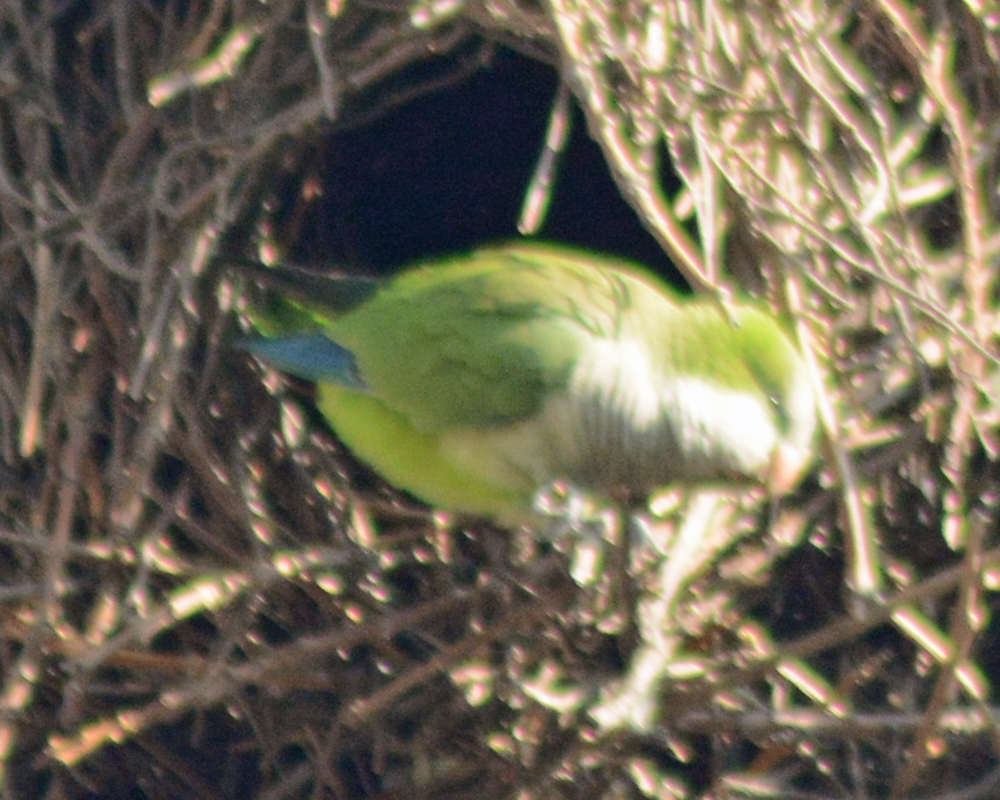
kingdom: Animalia
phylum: Chordata
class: Aves
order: Psittaciformes
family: Psittacidae
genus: Myiopsitta
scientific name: Myiopsitta monachus
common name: Monk parakeet
